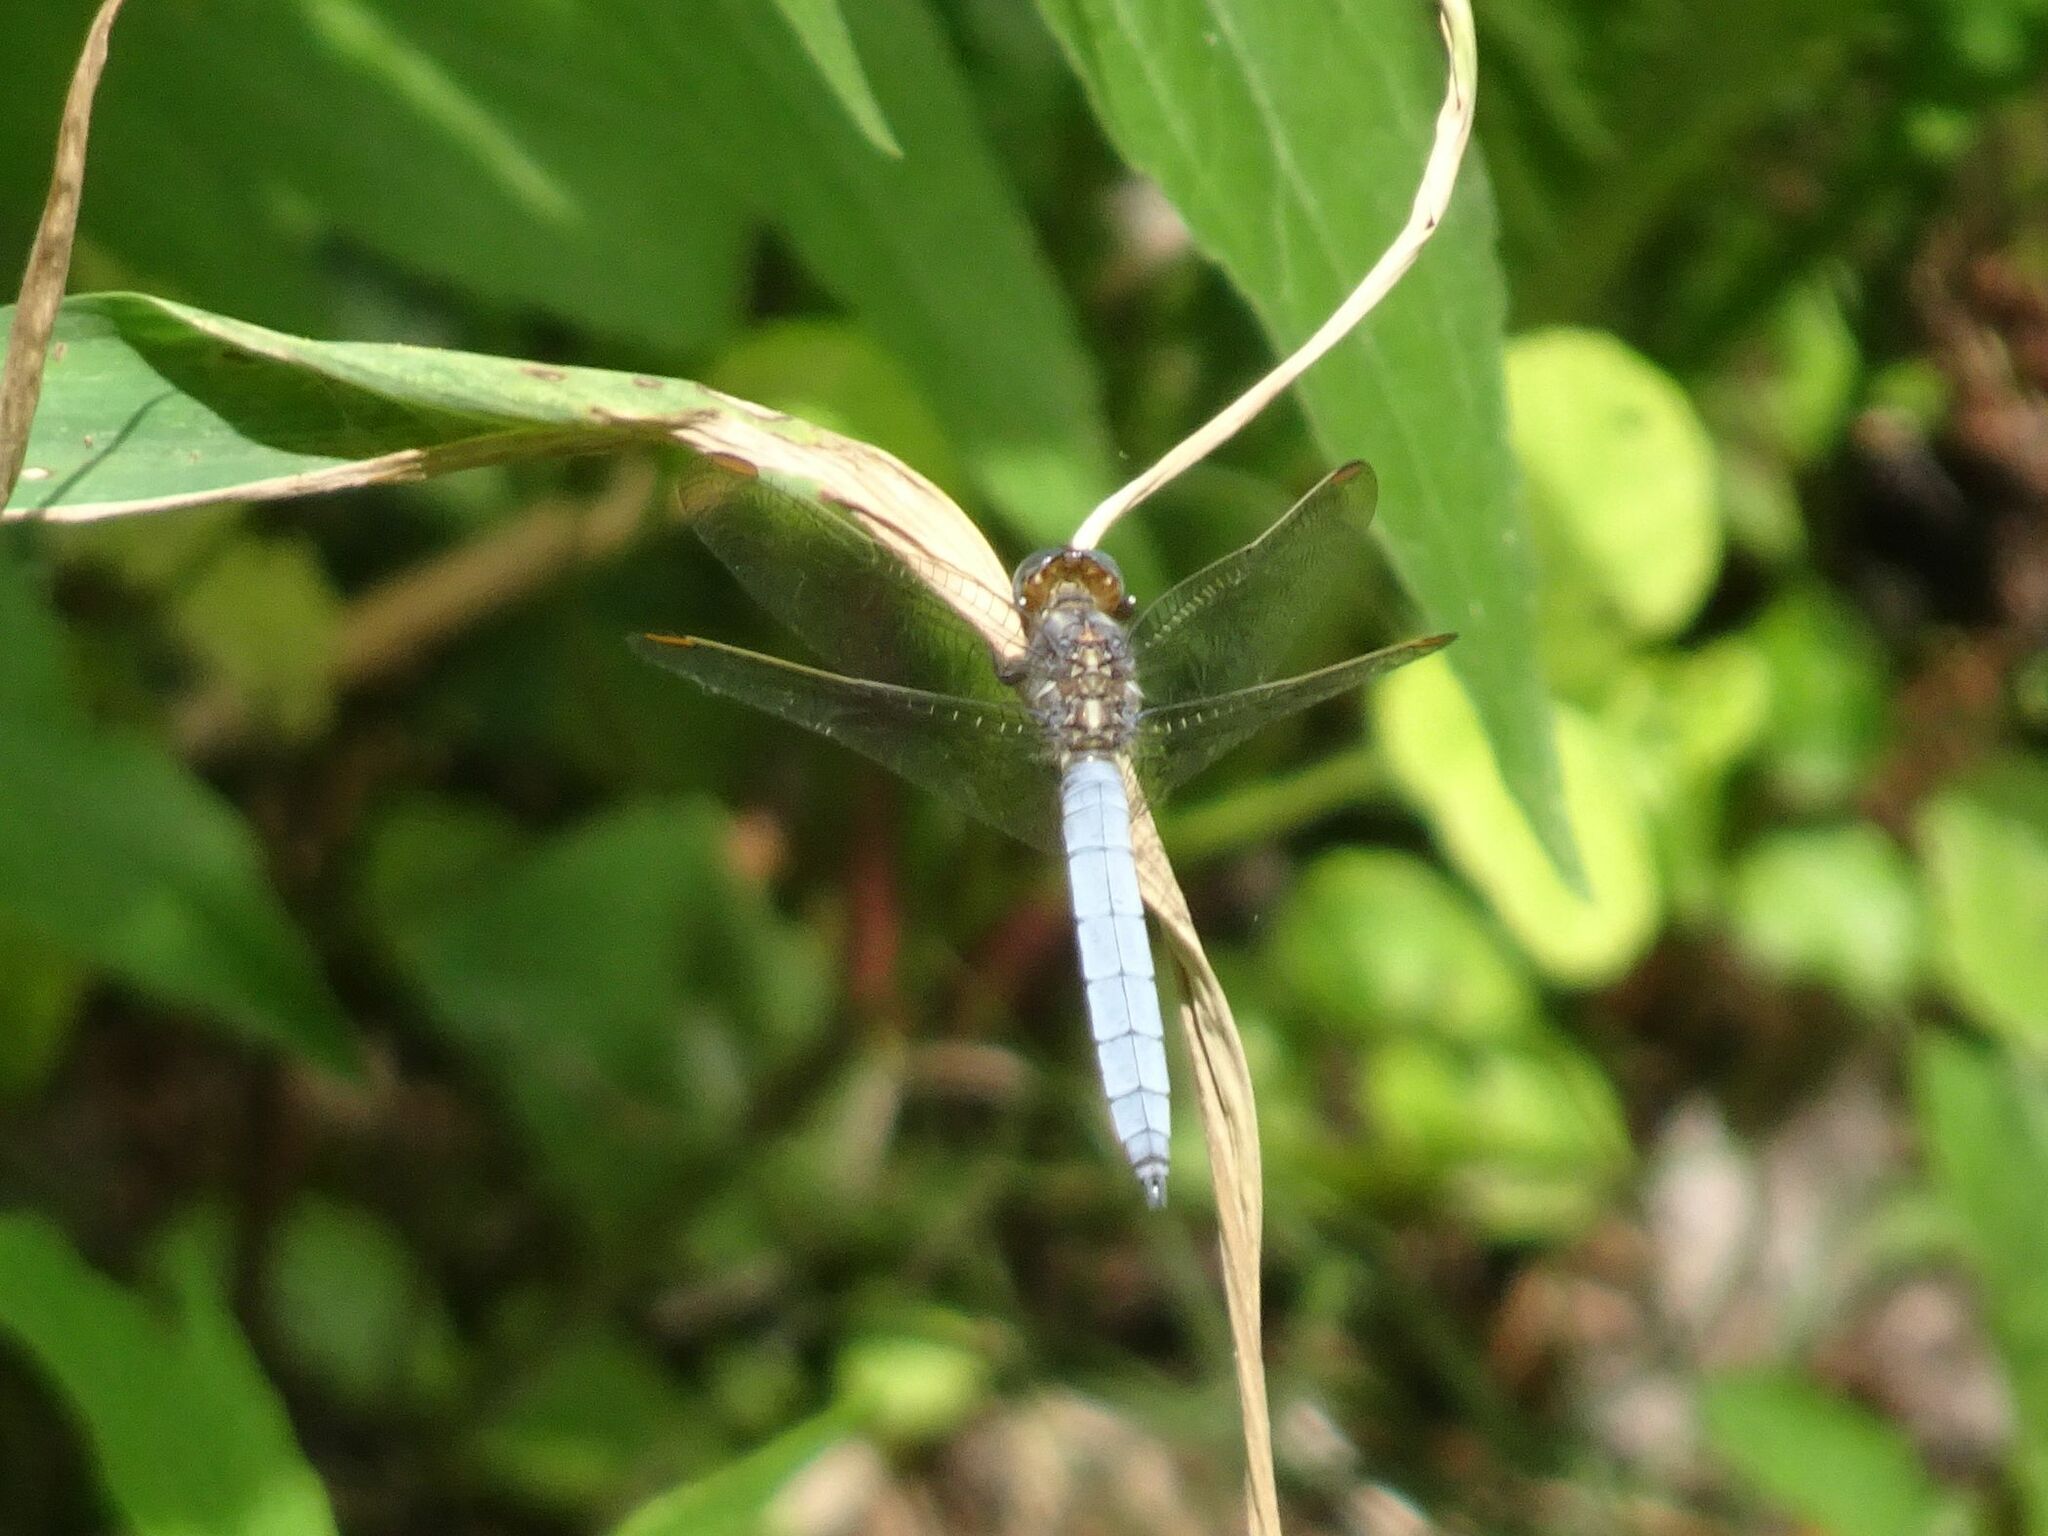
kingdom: Animalia
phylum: Arthropoda
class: Insecta
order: Odonata
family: Libellulidae
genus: Orthetrum
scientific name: Orthetrum coerulescens
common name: Keeled skimmer
